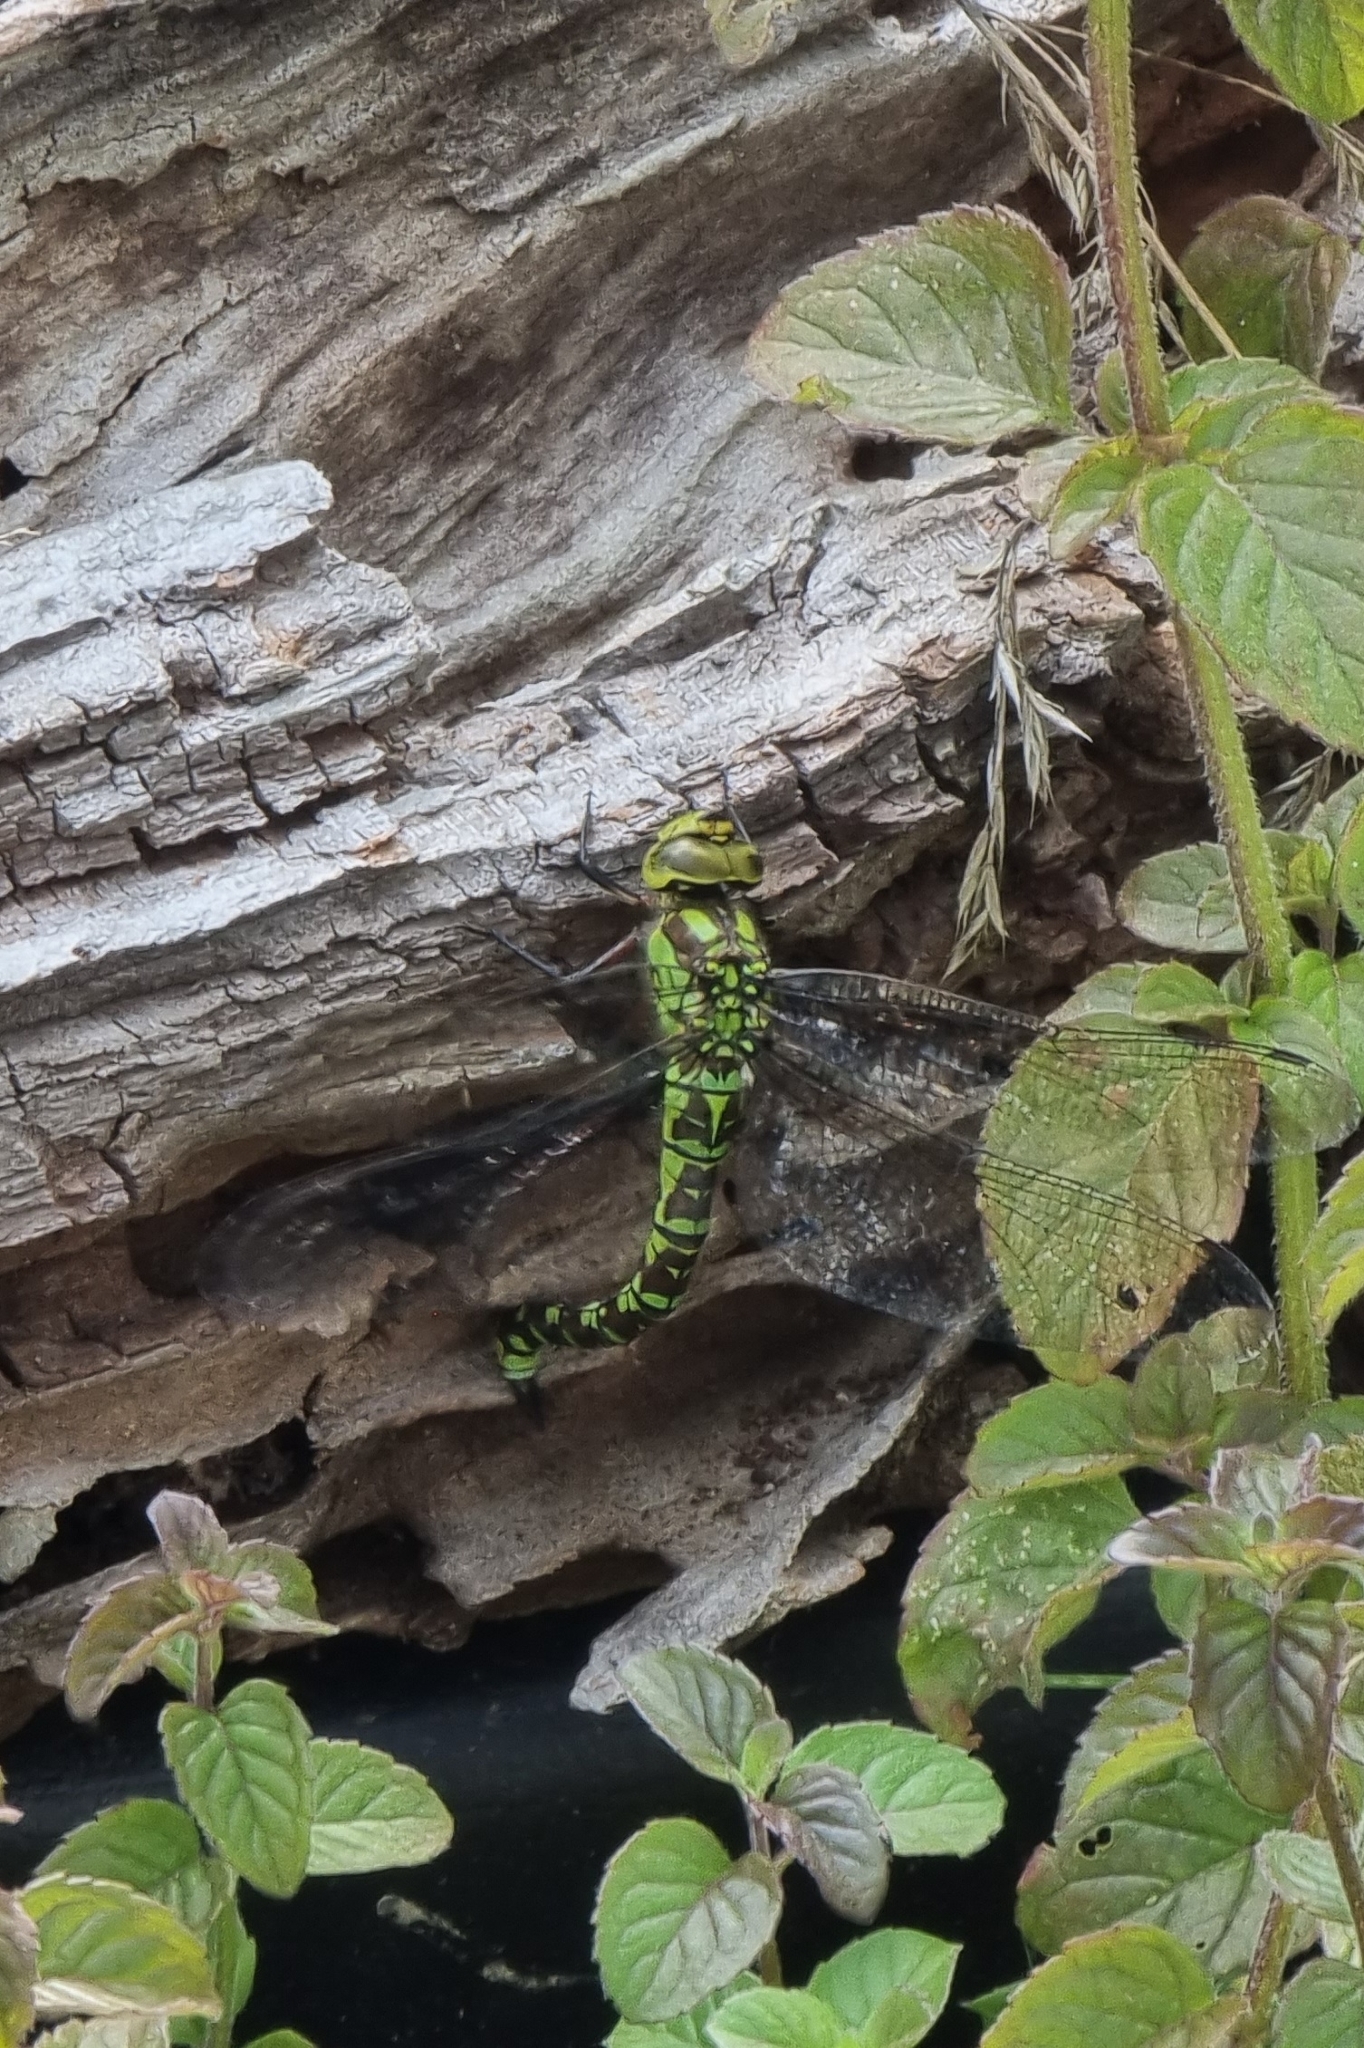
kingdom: Animalia
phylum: Arthropoda
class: Insecta
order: Odonata
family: Aeshnidae
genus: Aeshna
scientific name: Aeshna cyanea
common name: Southern hawker
